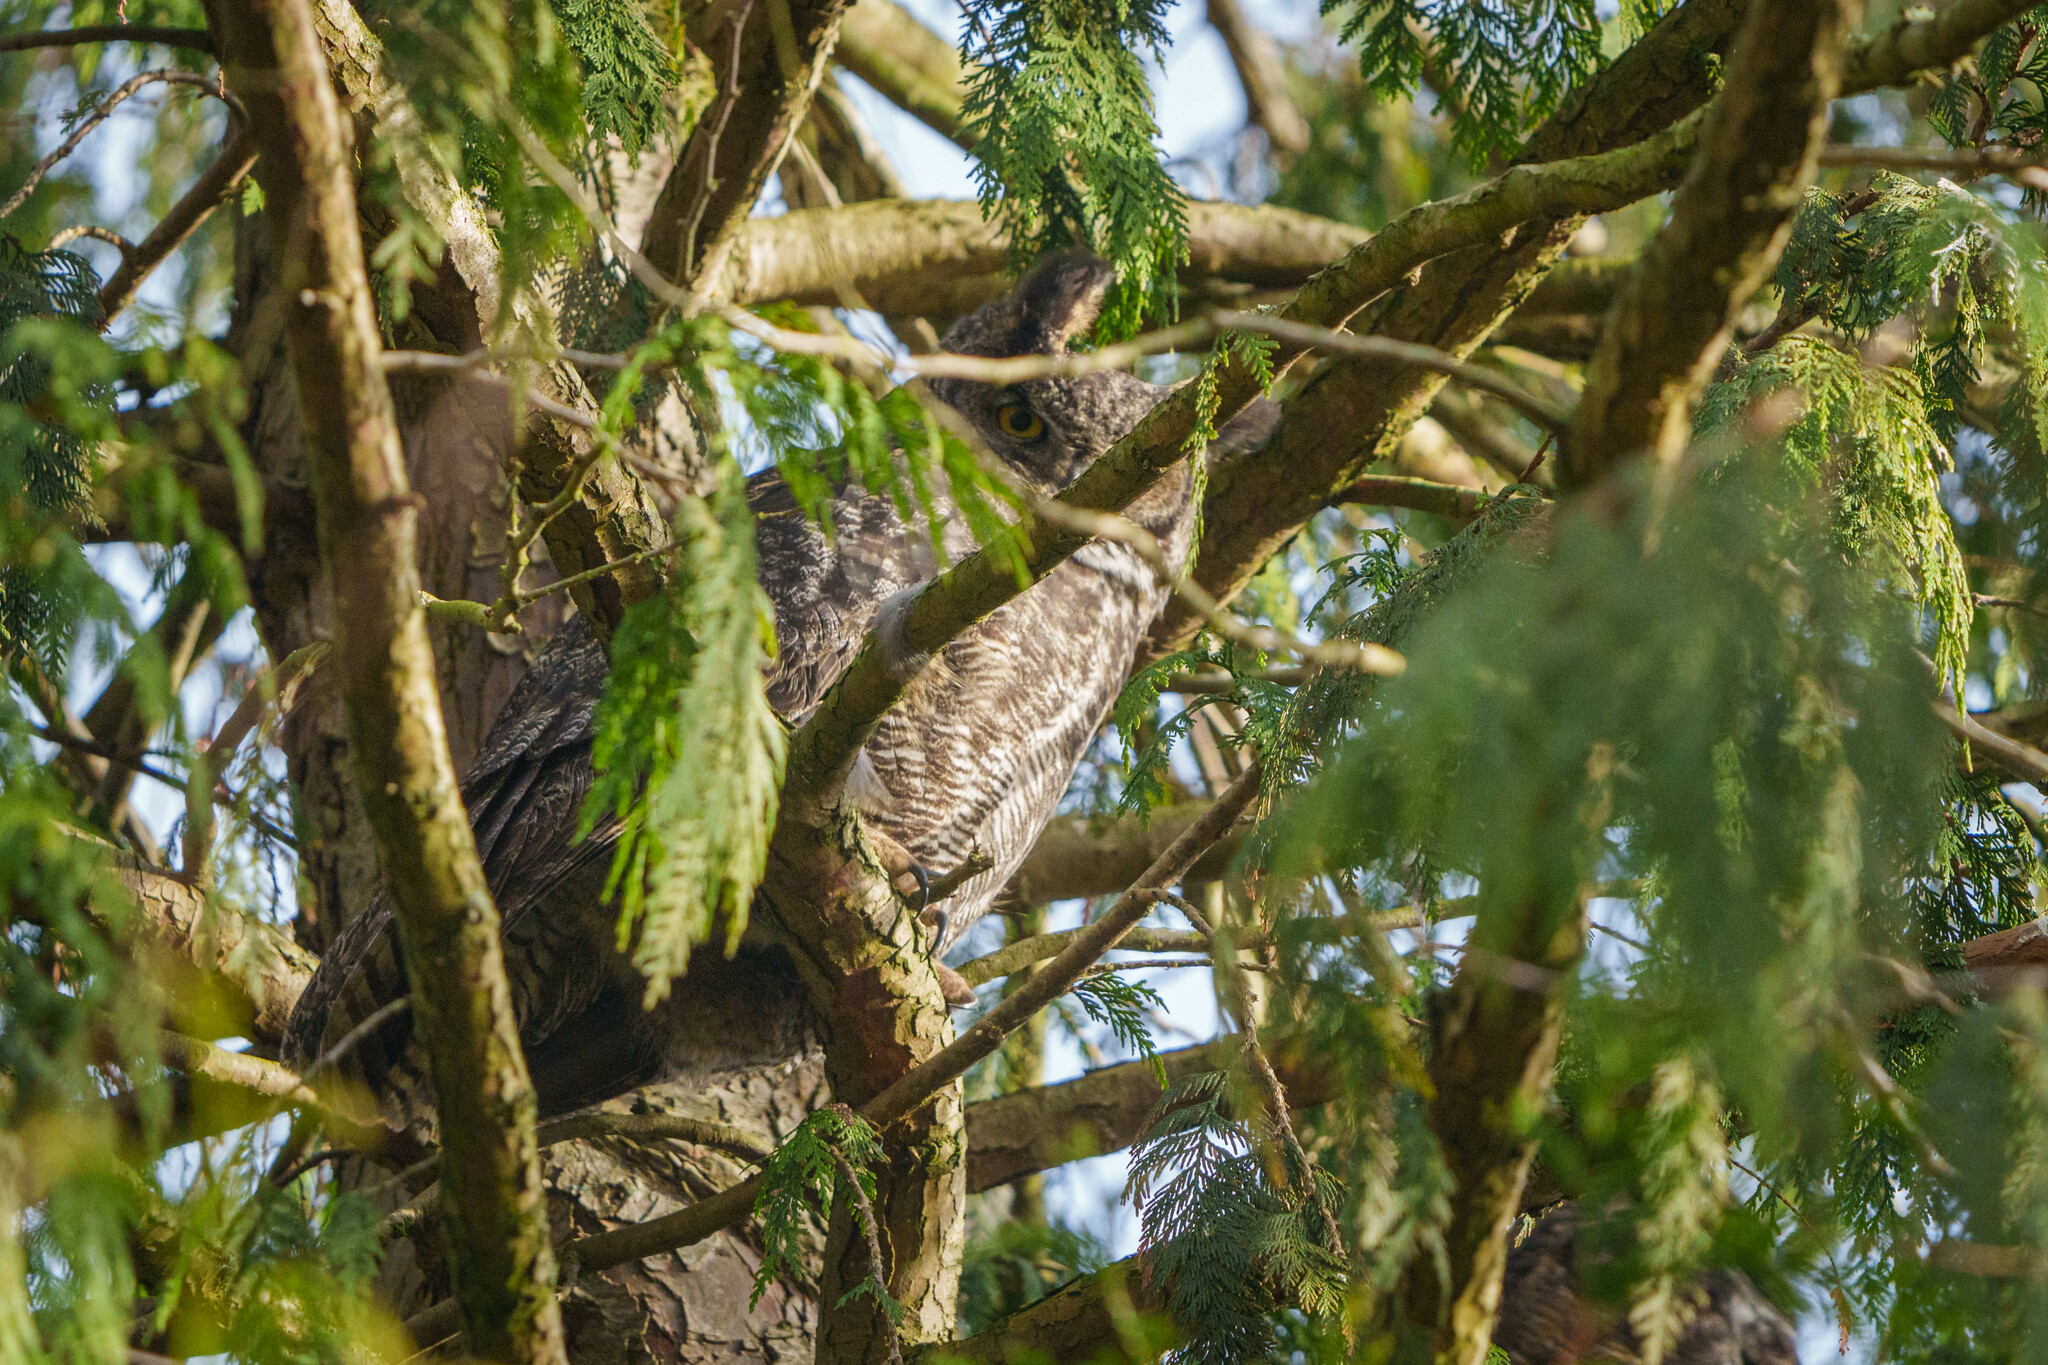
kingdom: Animalia
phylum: Chordata
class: Aves
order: Strigiformes
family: Strigidae
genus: Bubo
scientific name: Bubo virginianus
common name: Great horned owl
